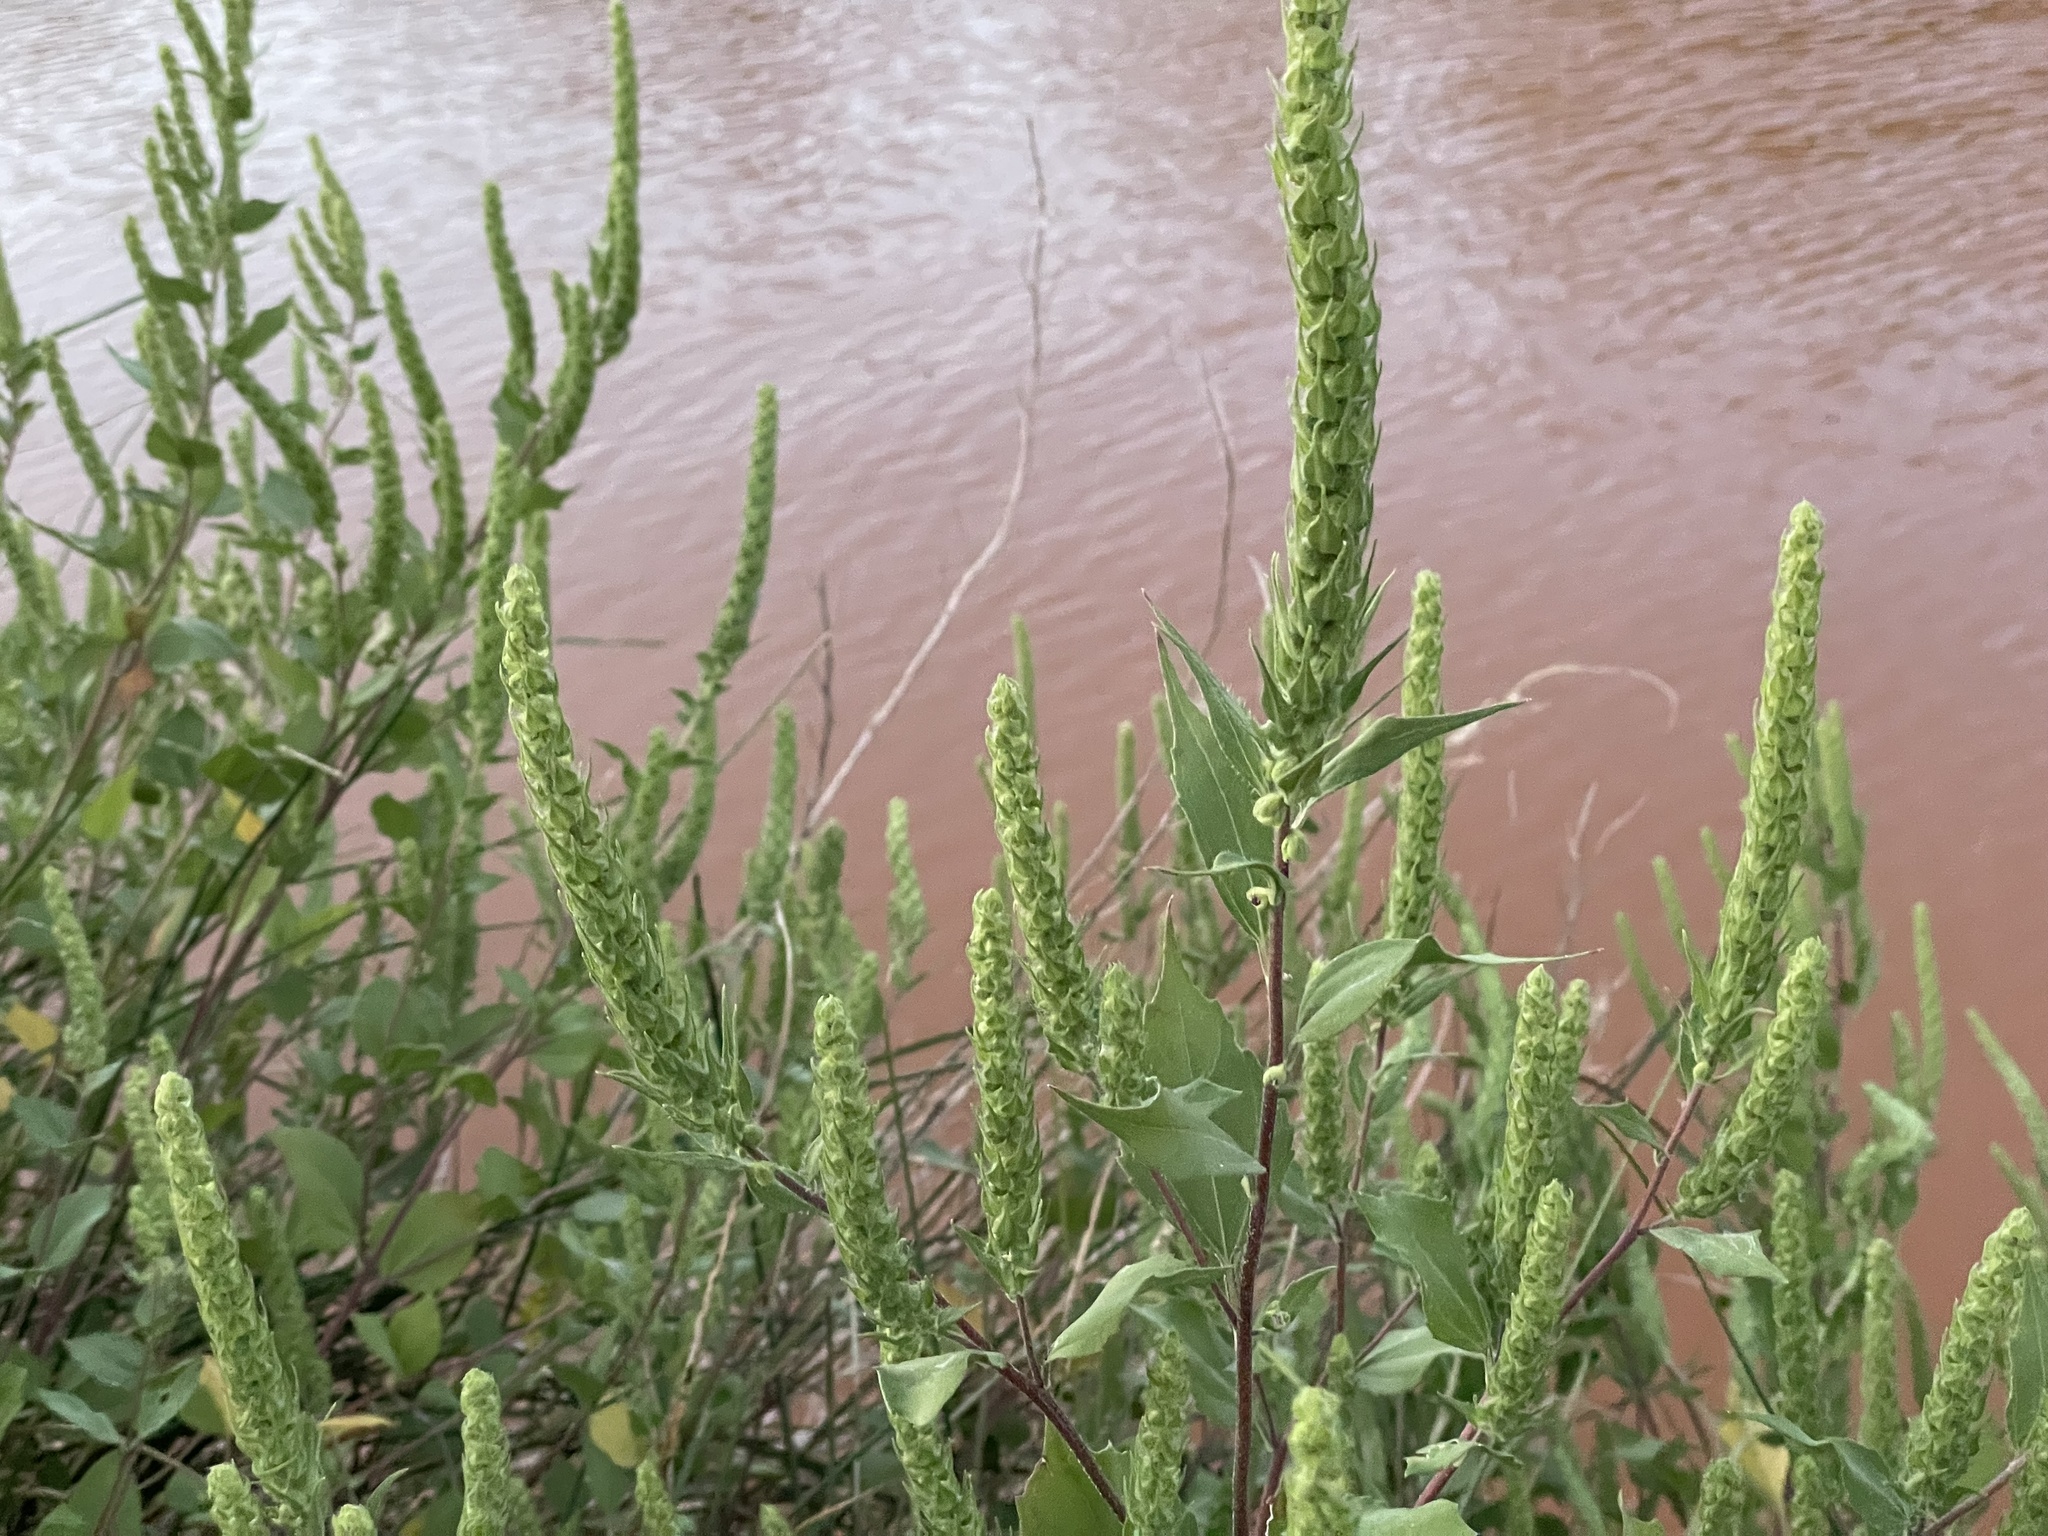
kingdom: Plantae
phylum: Tracheophyta
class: Magnoliopsida
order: Asterales
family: Asteraceae
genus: Iva
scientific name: Iva annua
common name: Marsh-elder
